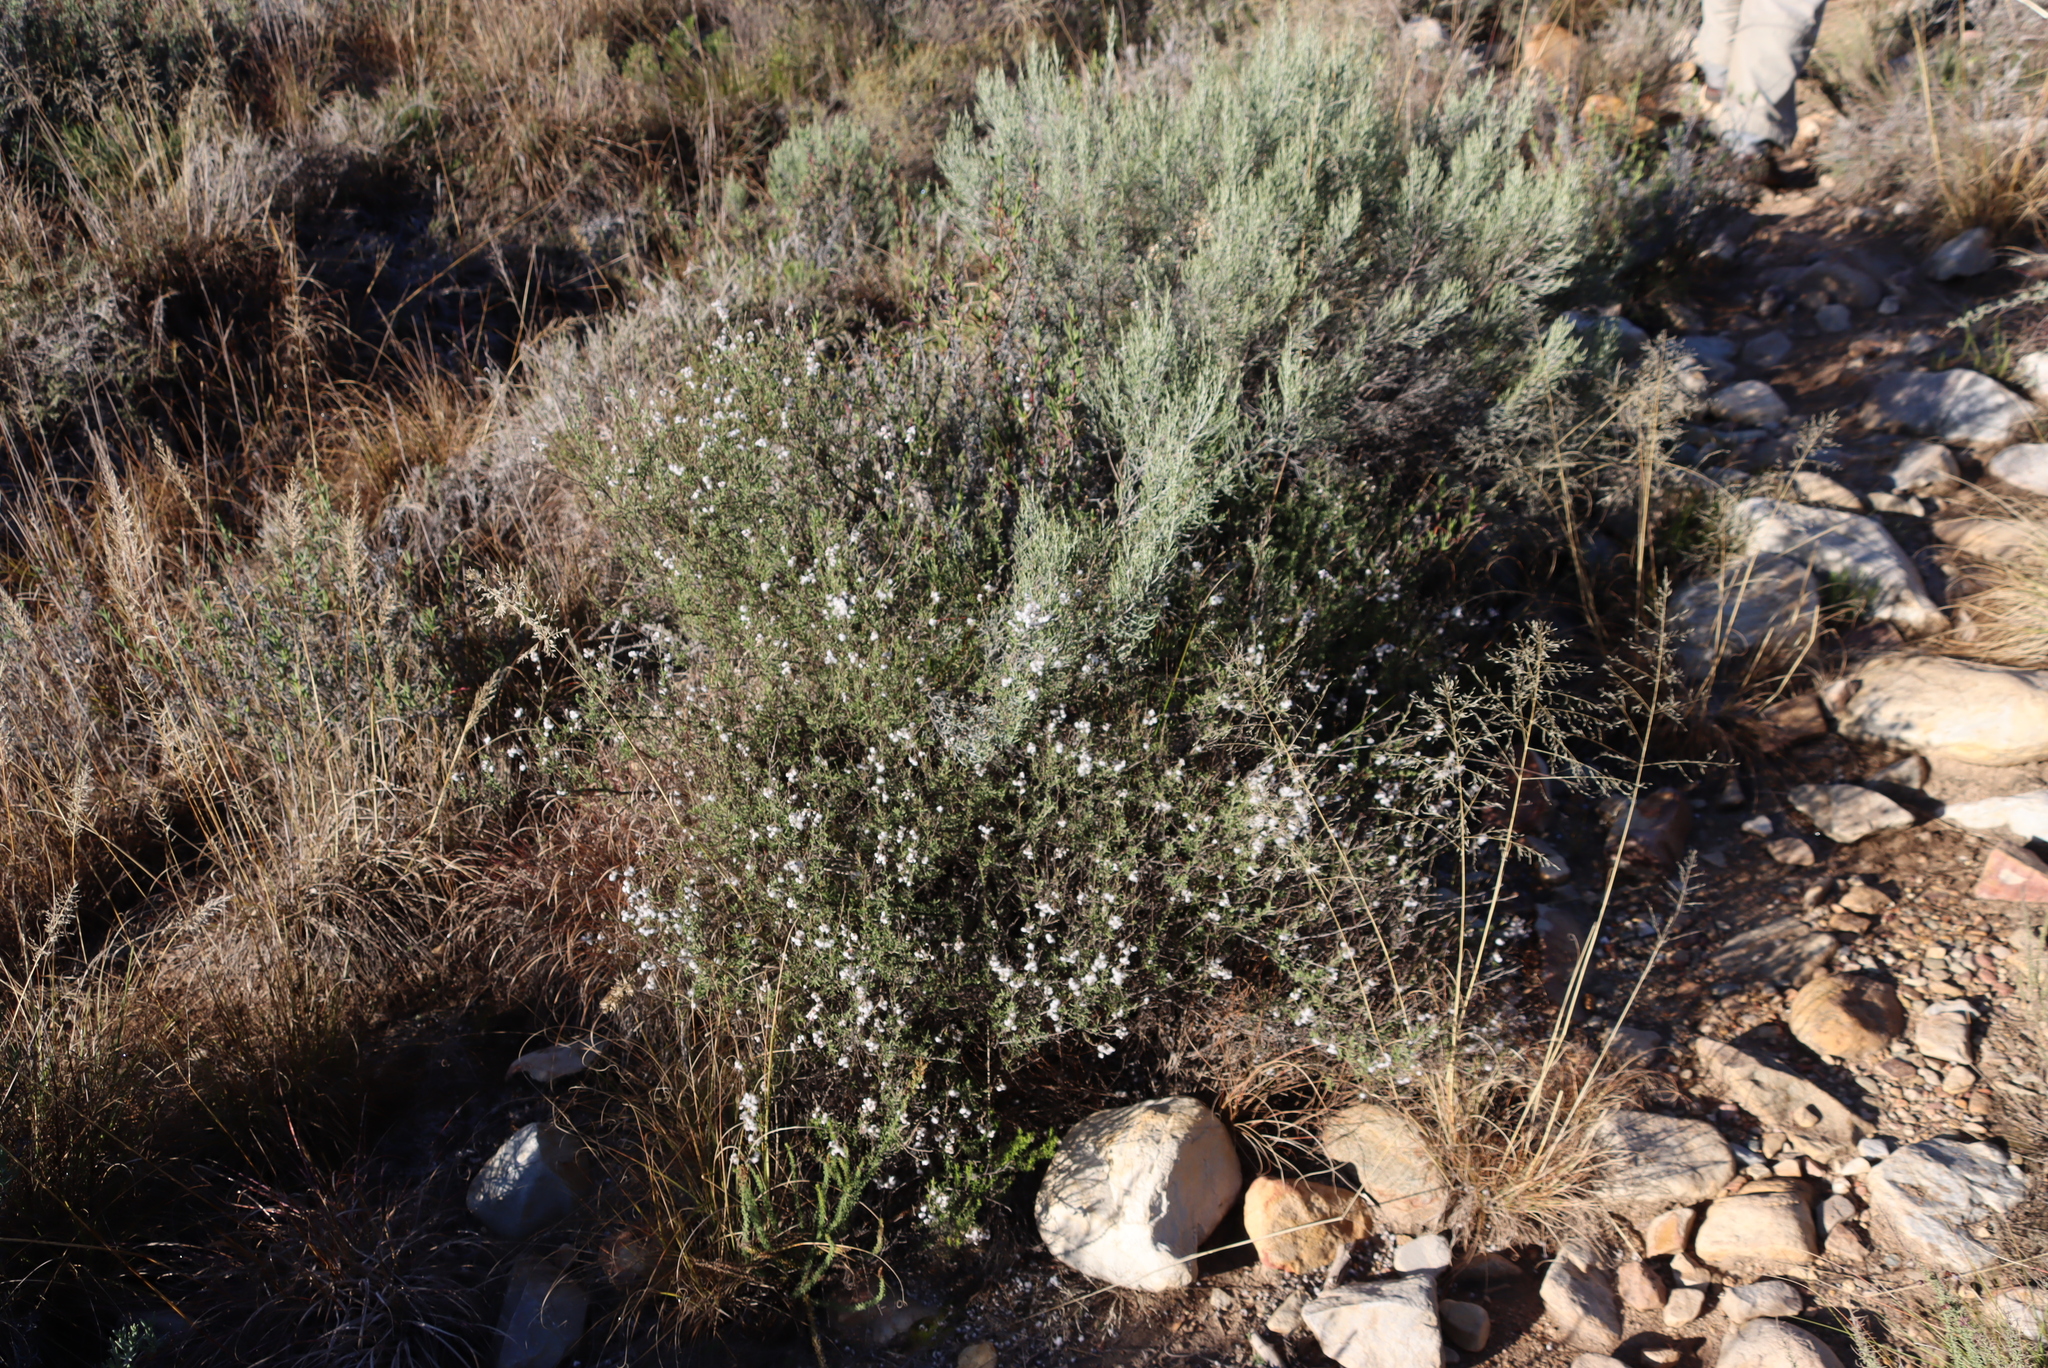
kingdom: Plantae
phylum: Tracheophyta
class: Magnoliopsida
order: Asterales
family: Asteraceae
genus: Dicerothamnus
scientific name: Dicerothamnus rhinocerotis
